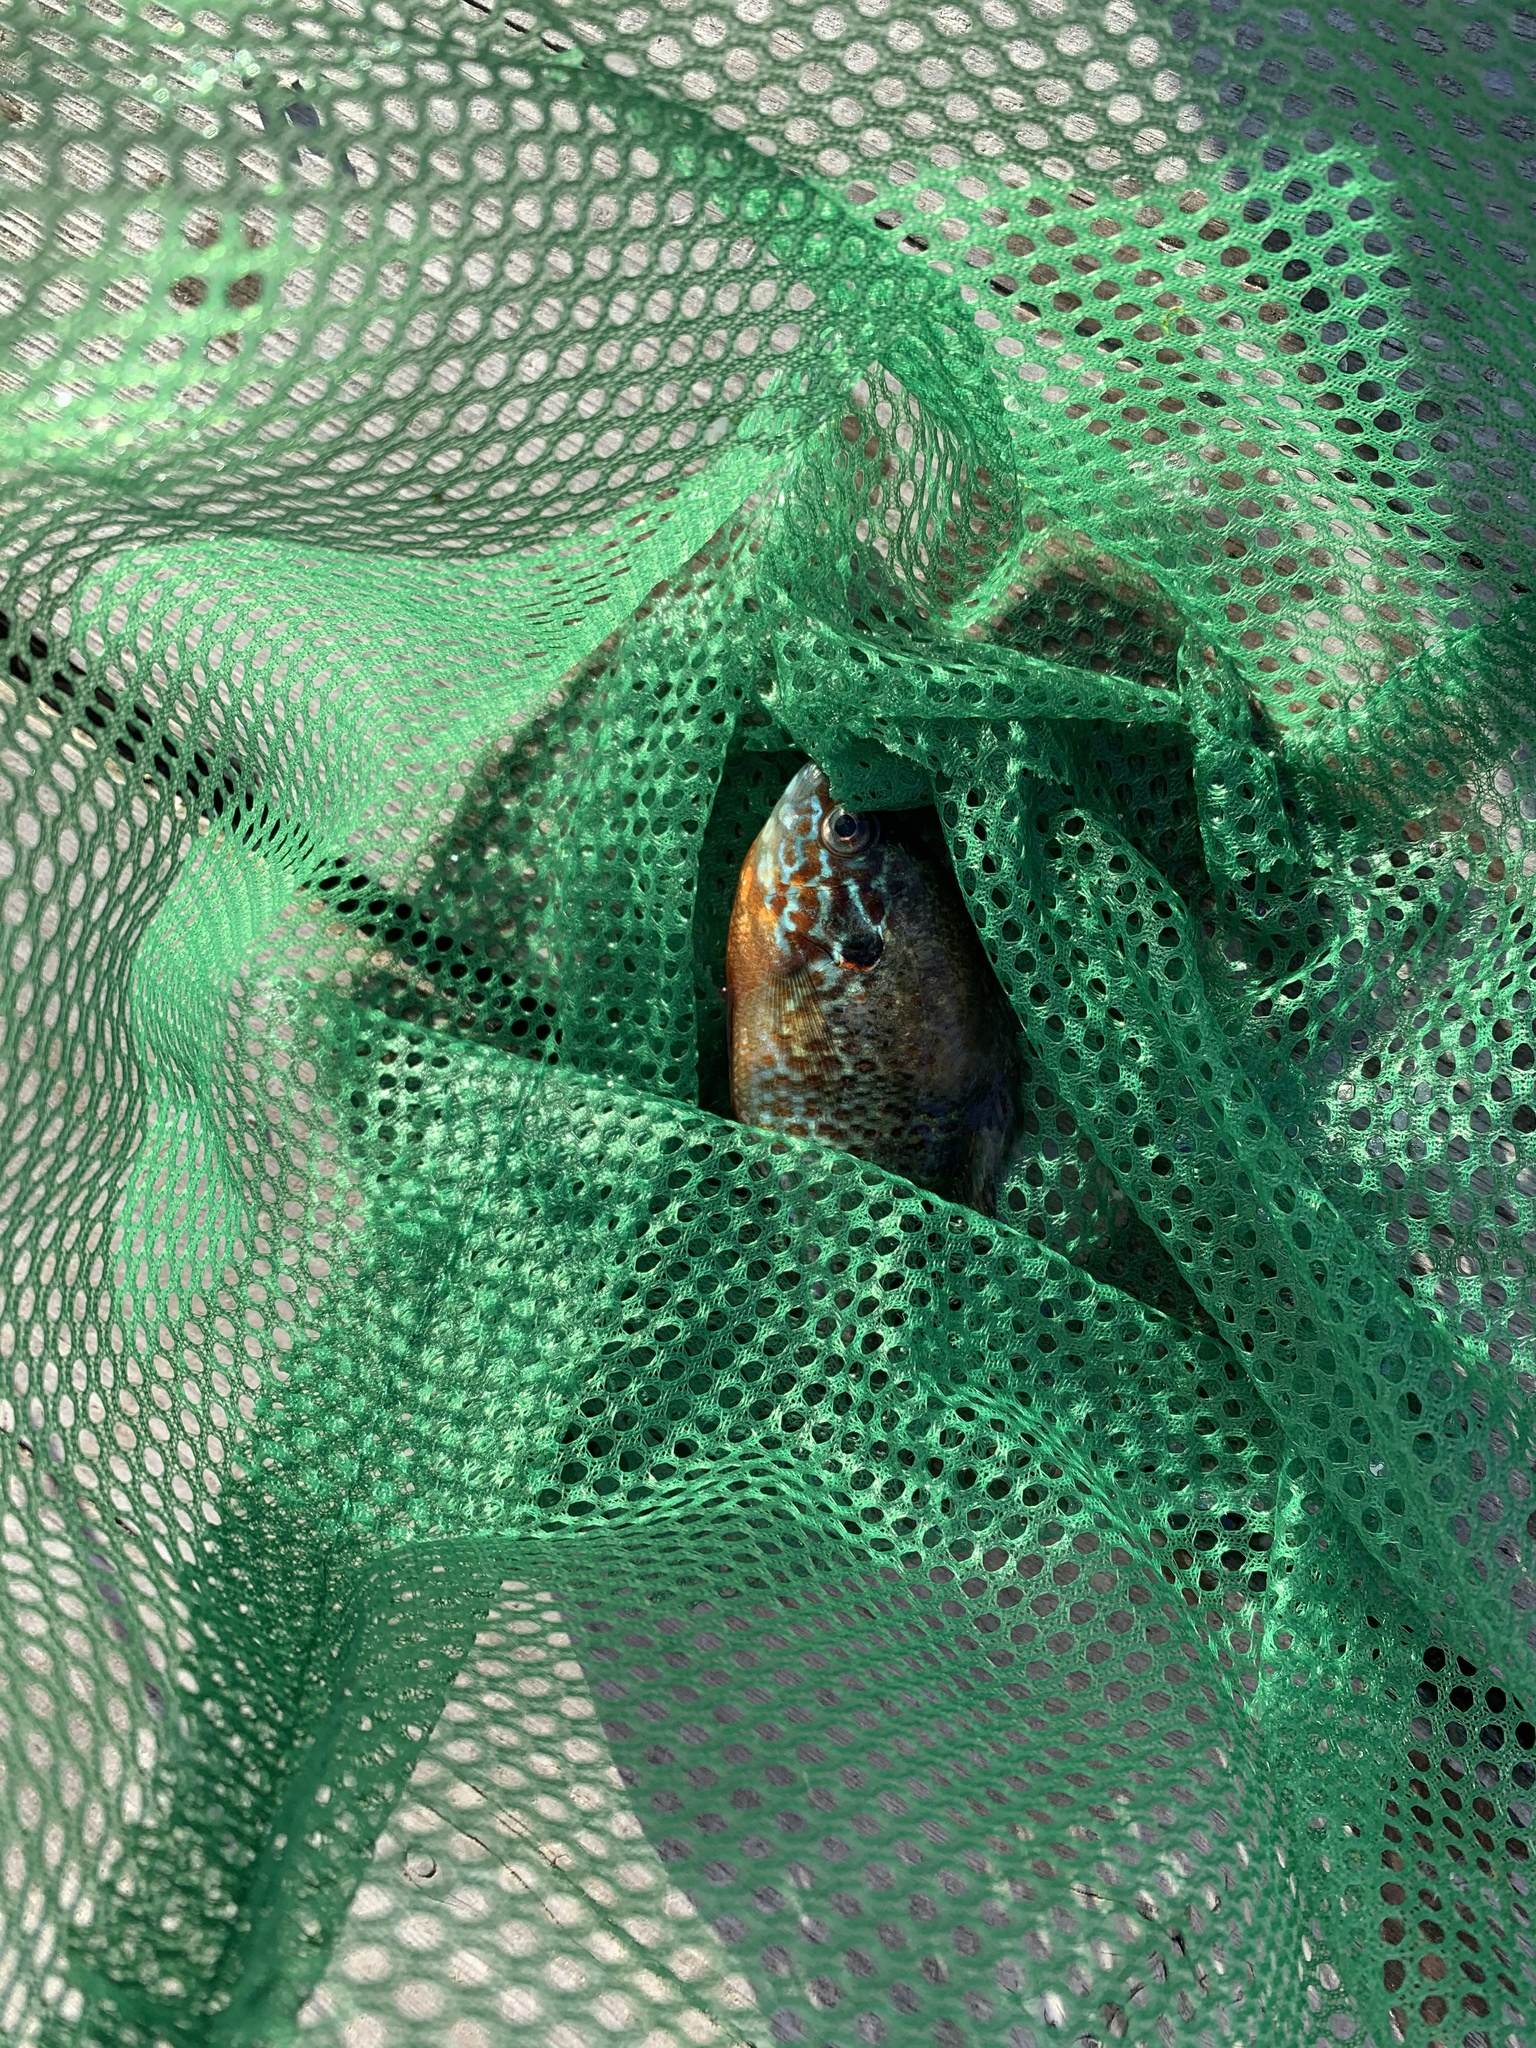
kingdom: Animalia
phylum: Chordata
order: Perciformes
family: Centrarchidae
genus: Lepomis
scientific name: Lepomis gibbosus
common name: Pumpkinseed
